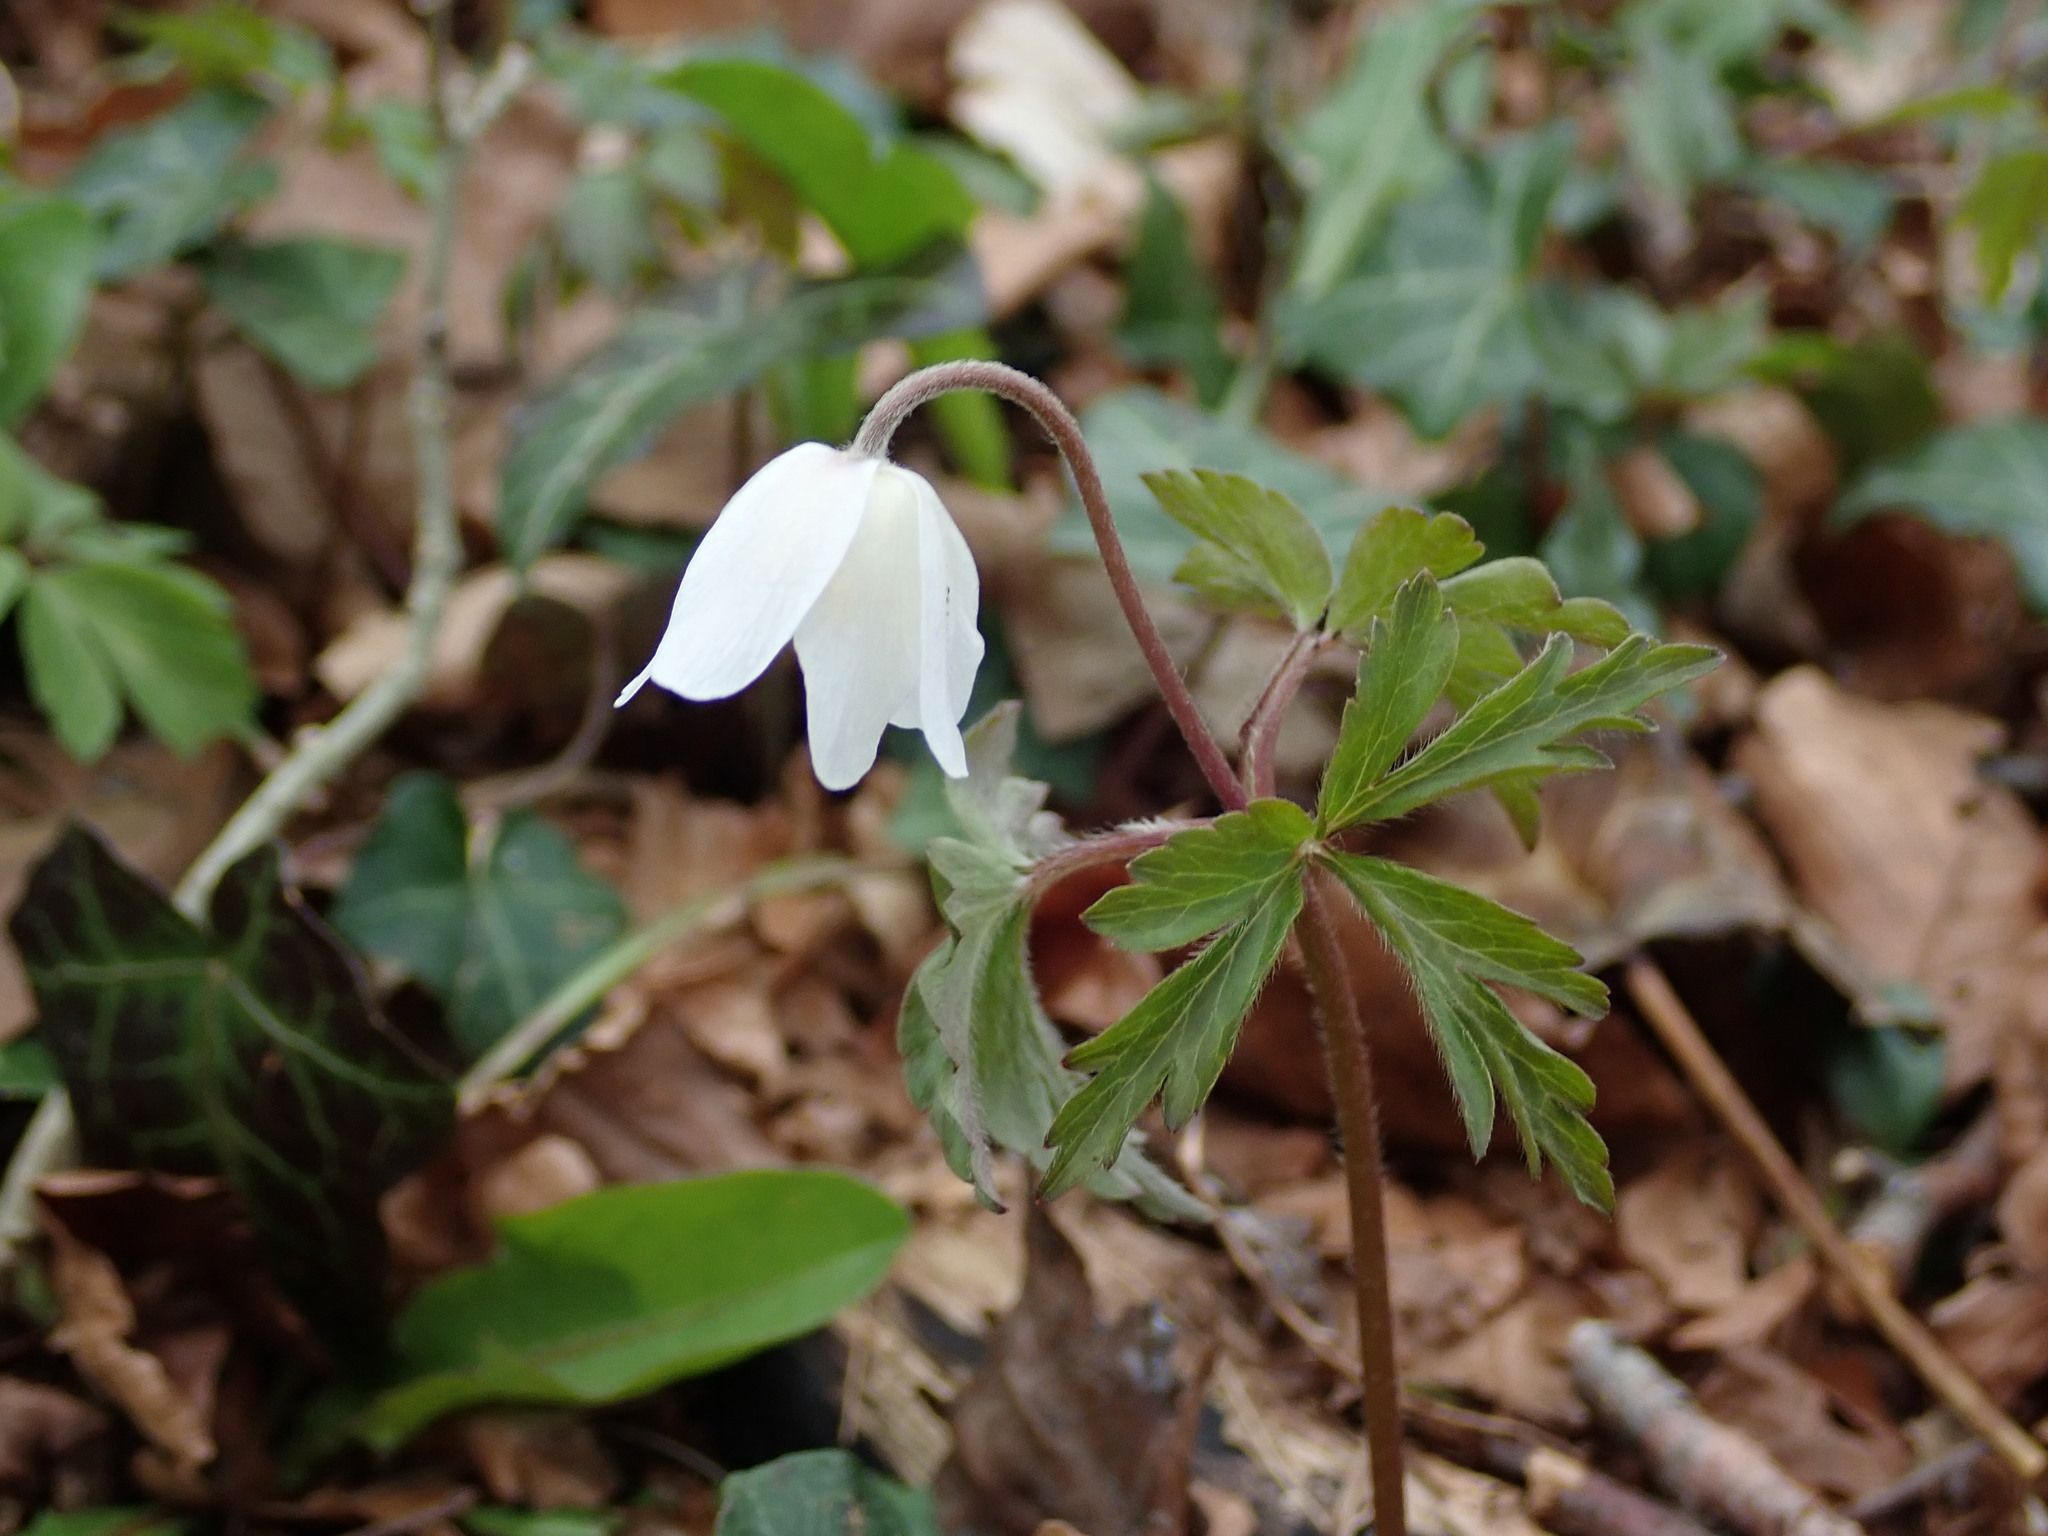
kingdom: Plantae
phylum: Tracheophyta
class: Magnoliopsida
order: Ranunculales
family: Ranunculaceae
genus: Anemone
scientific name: Anemone nemorosa
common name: Wood anemone
